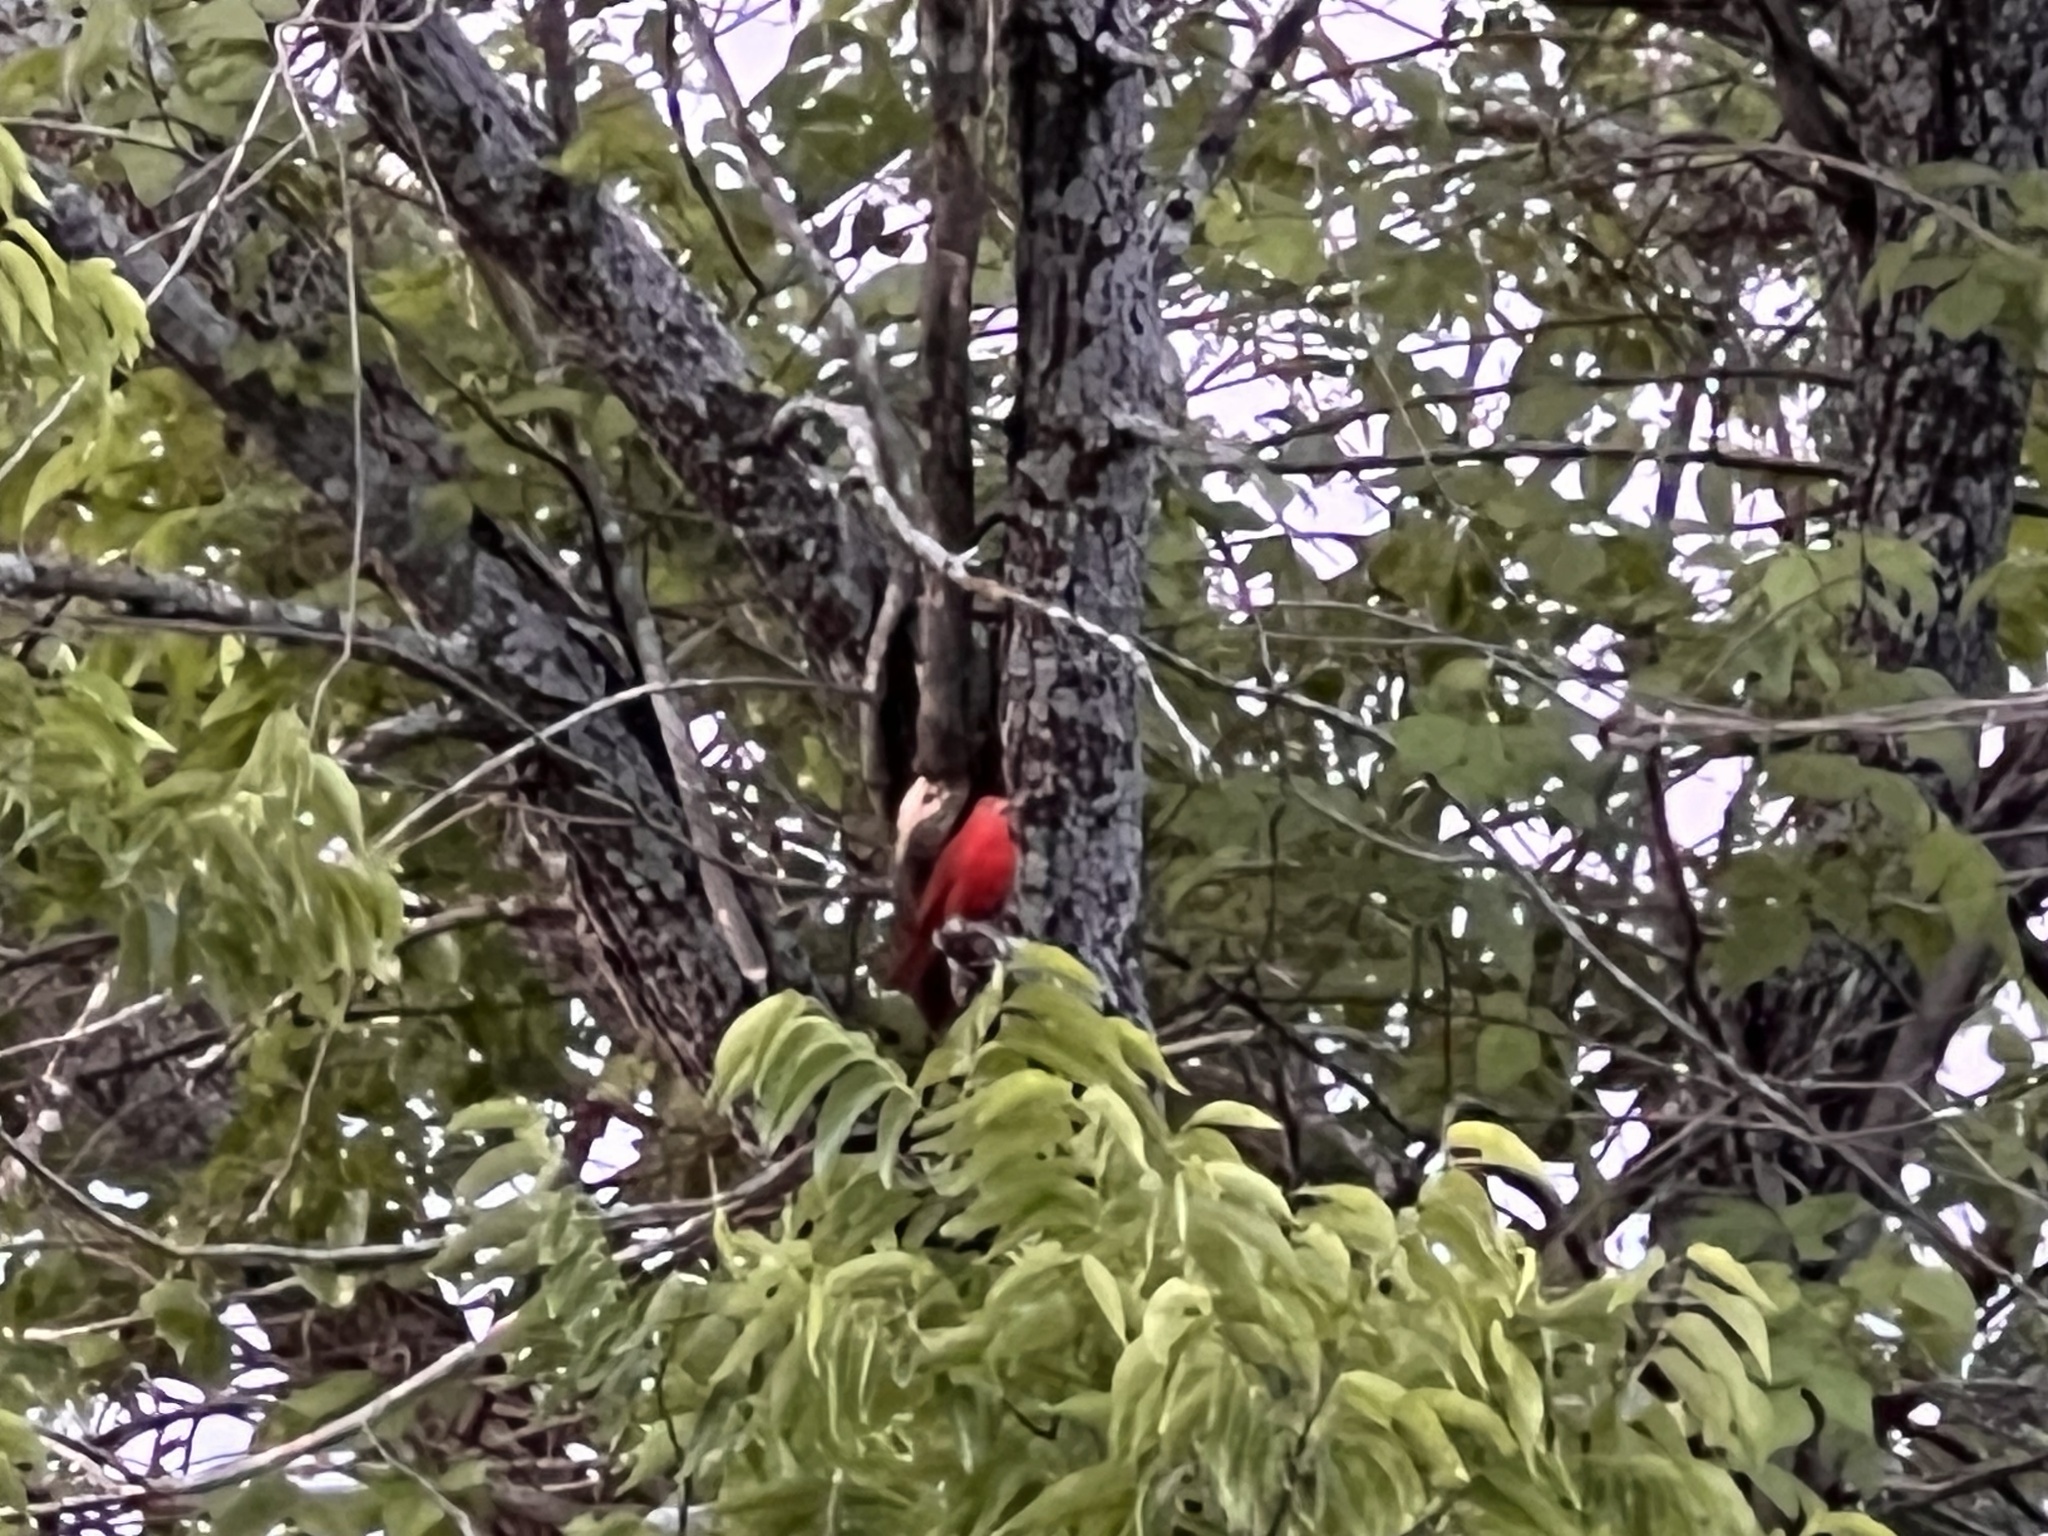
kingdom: Animalia
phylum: Chordata
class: Aves
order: Passeriformes
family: Cardinalidae
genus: Piranga
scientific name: Piranga rubra
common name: Summer tanager
